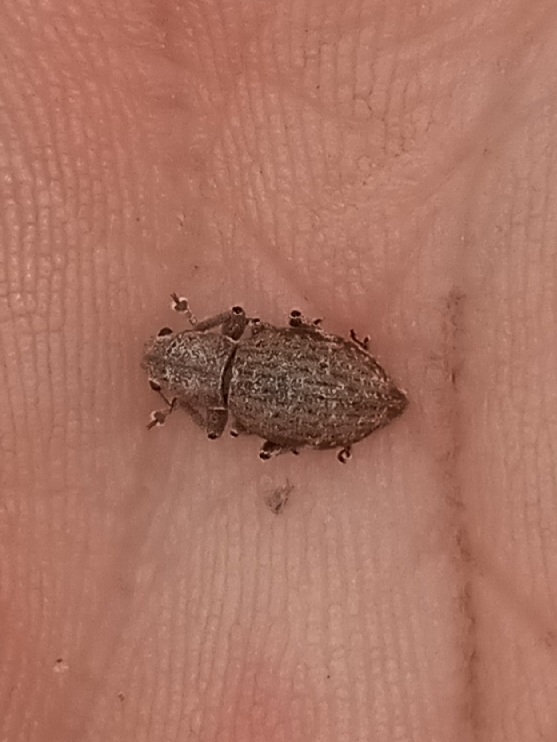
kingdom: Animalia
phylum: Arthropoda
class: Insecta
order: Coleoptera
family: Curculionidae
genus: Naupactus
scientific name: Naupactus cervinus
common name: Fuller rose beetle
